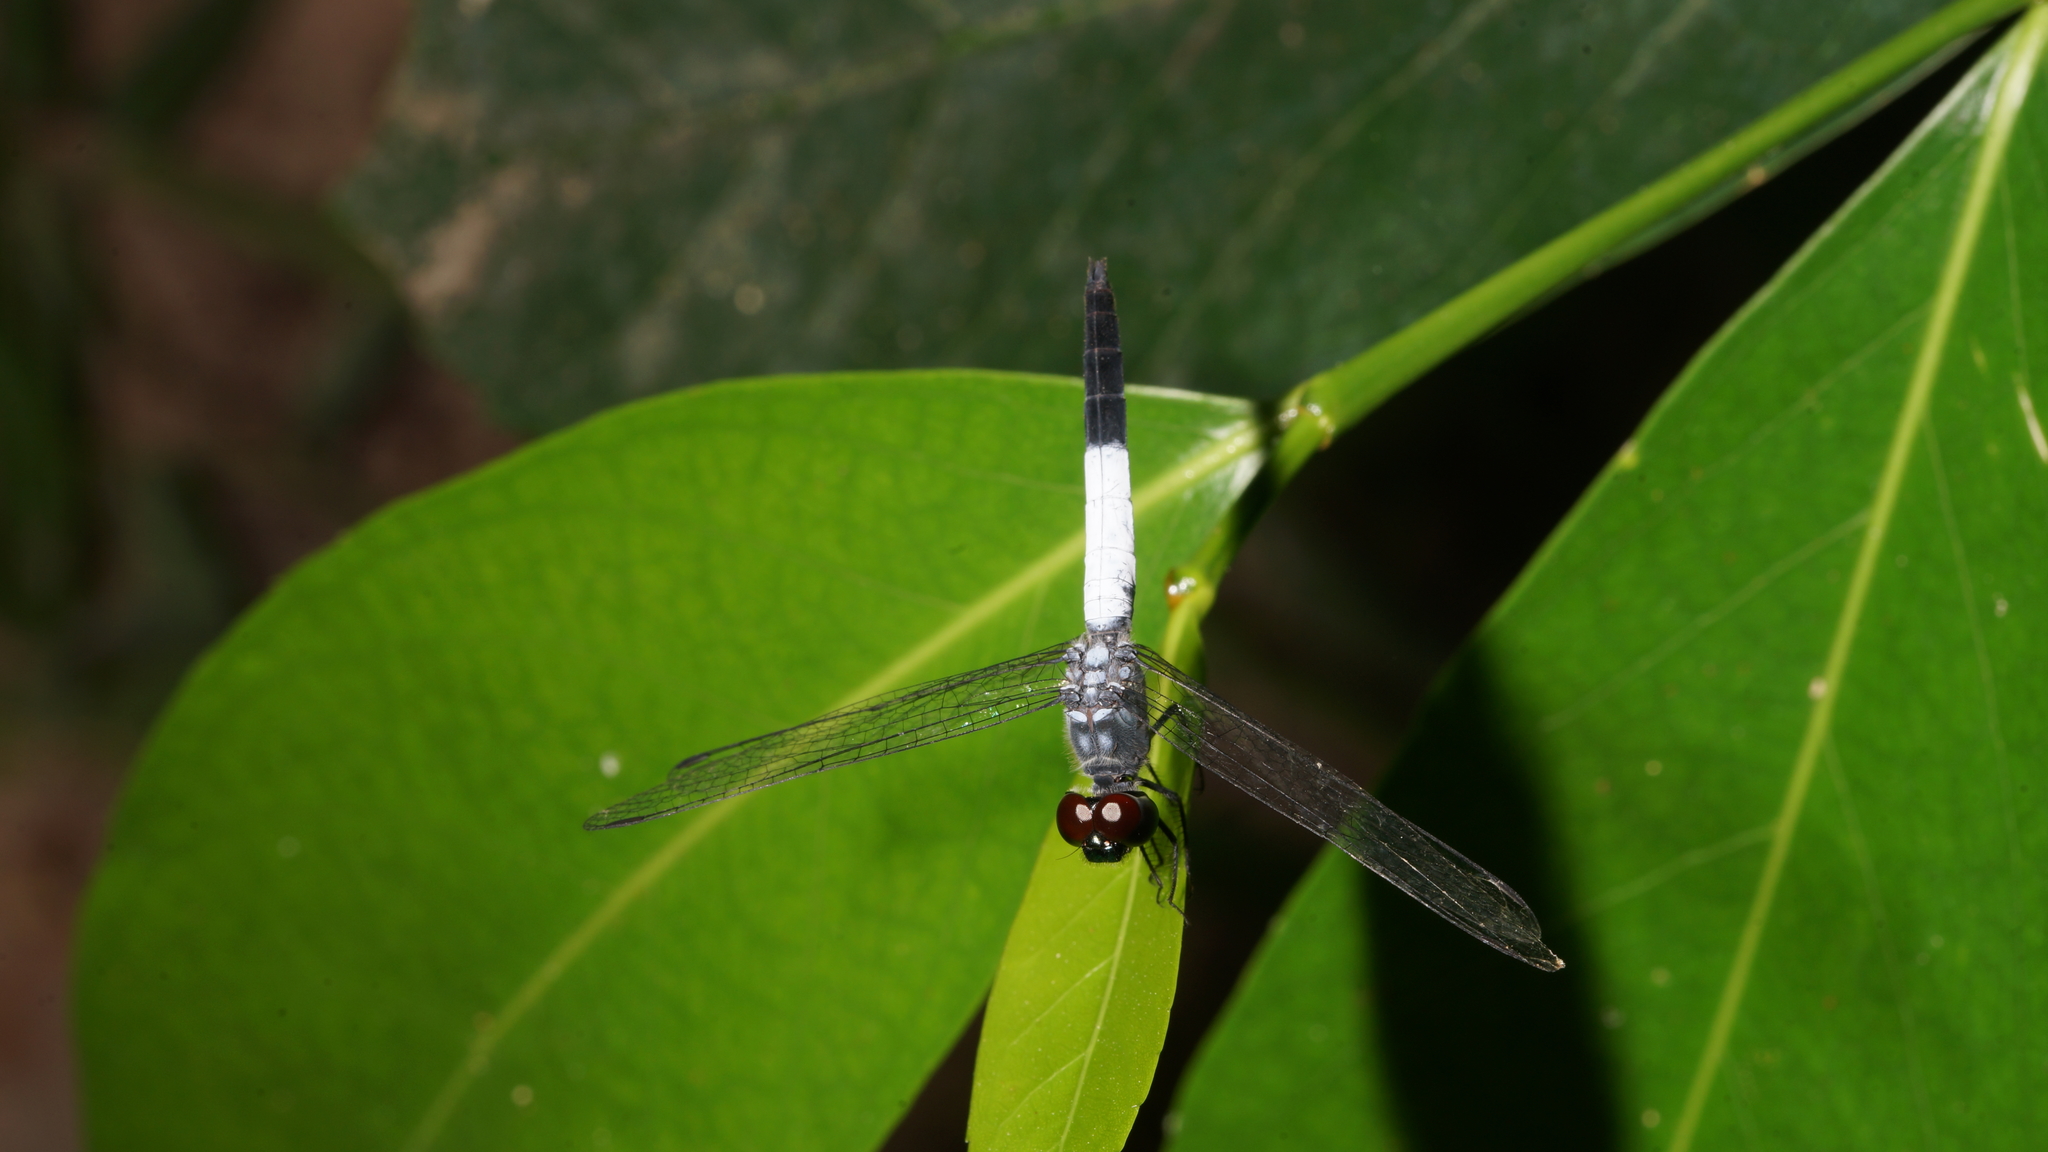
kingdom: Animalia
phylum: Arthropoda
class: Insecta
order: Odonata
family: Libellulidae
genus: Brachydiplax
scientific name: Brachydiplax farinosa
